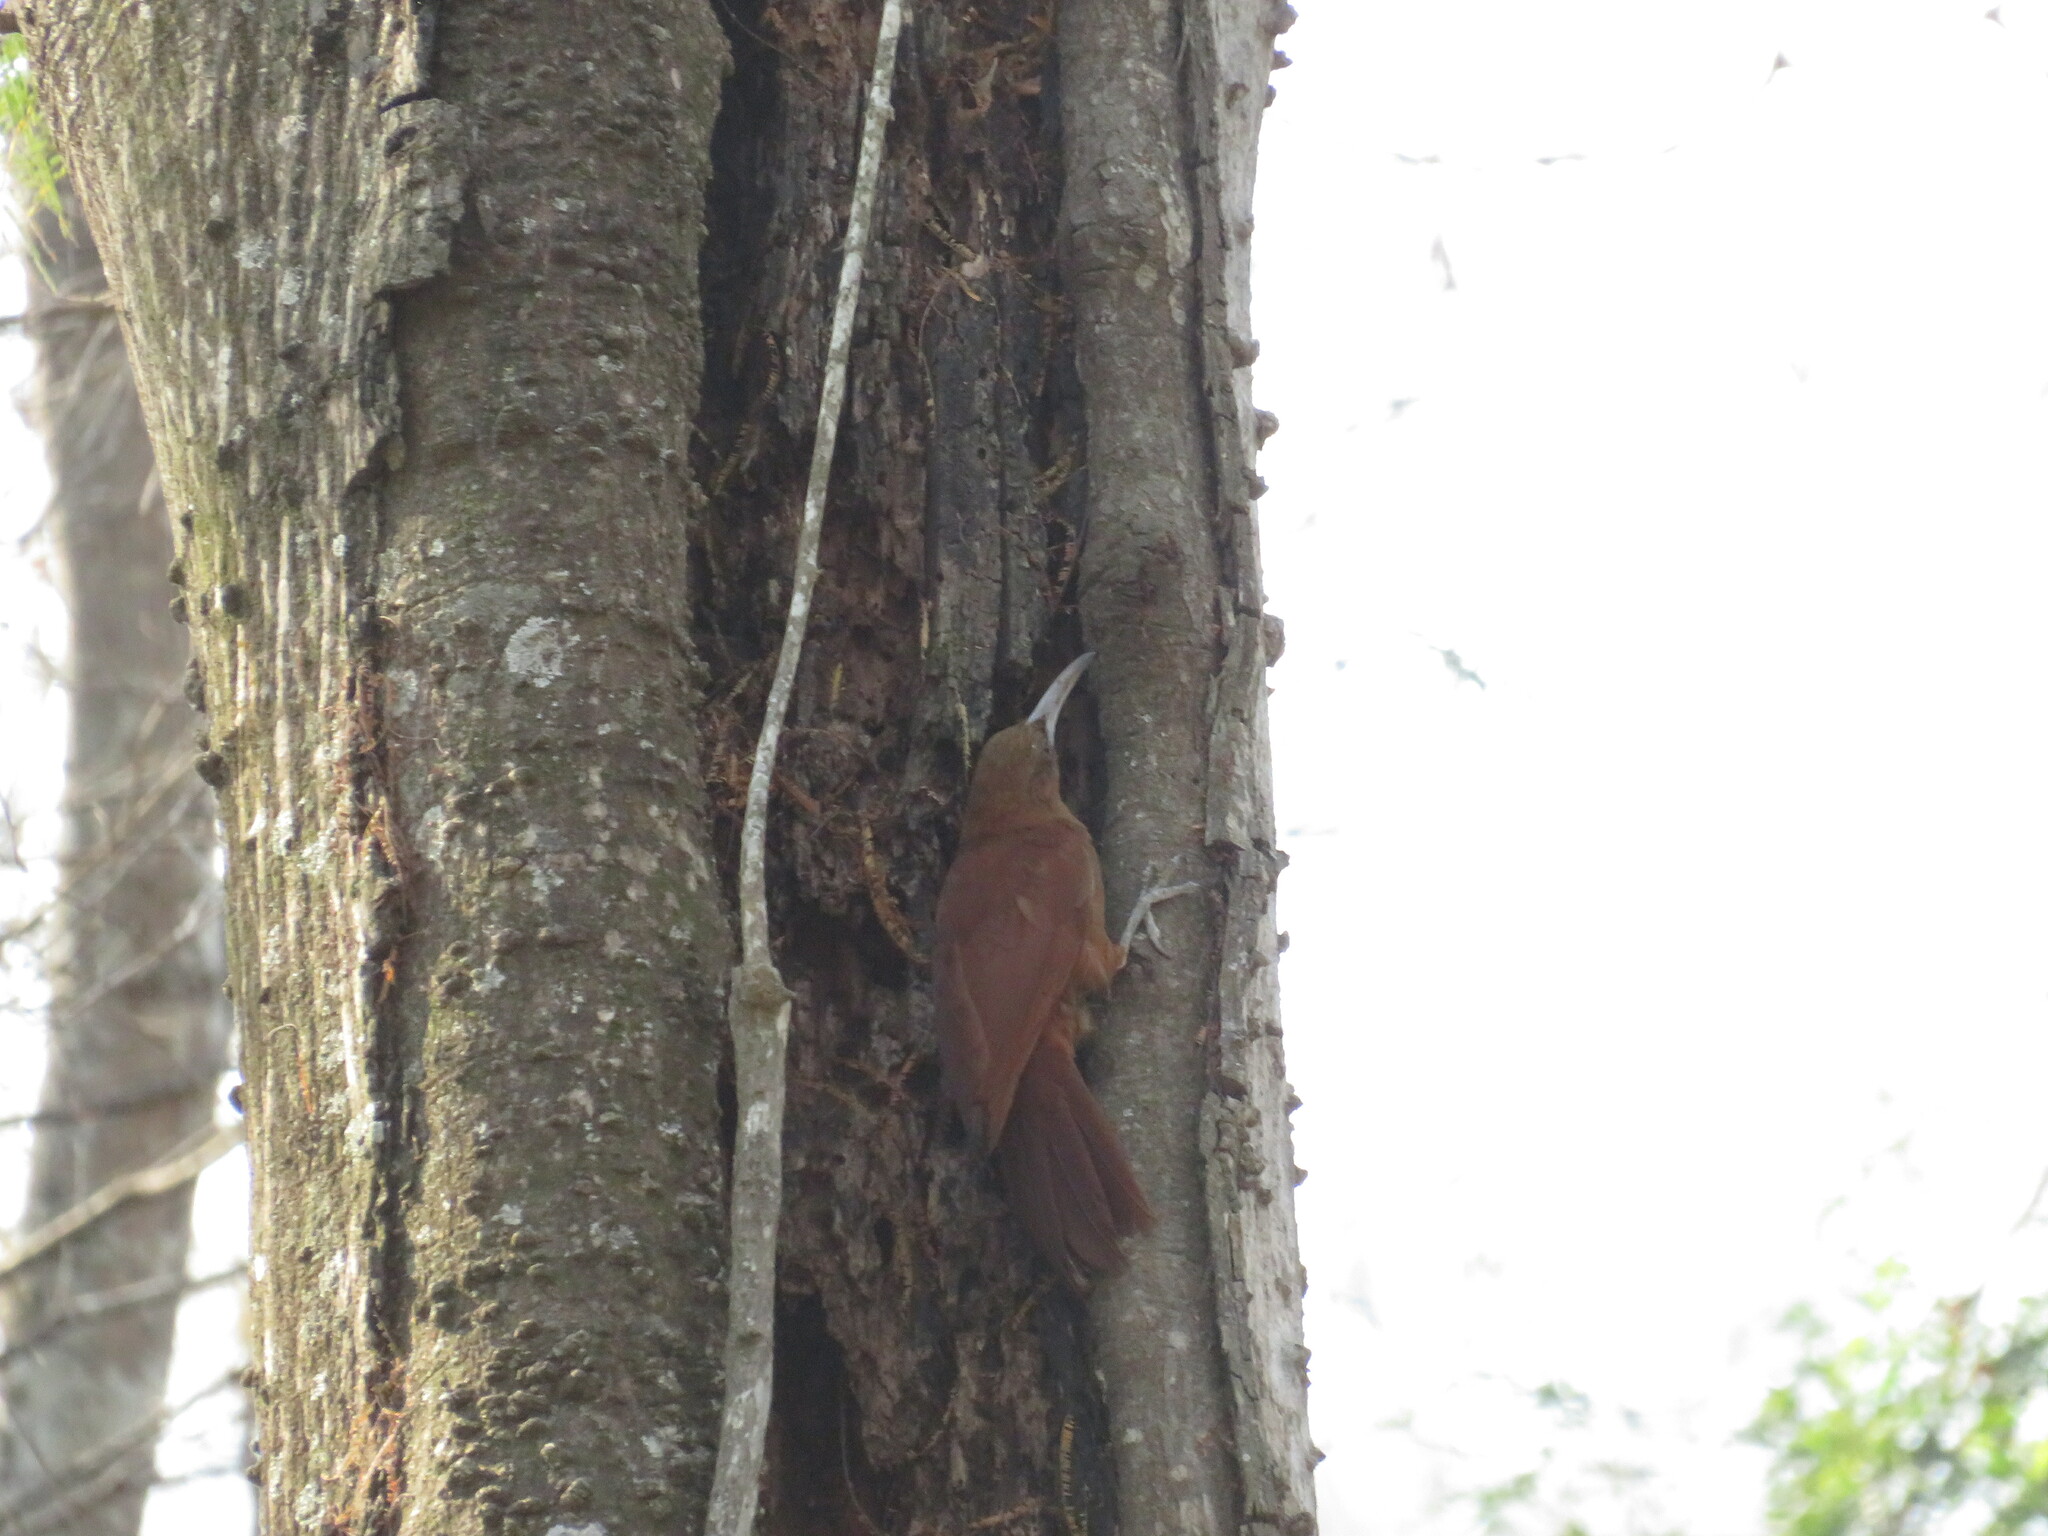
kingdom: Animalia
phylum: Chordata
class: Aves
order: Passeriformes
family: Furnariidae
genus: Xiphocolaptes
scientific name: Xiphocolaptes major
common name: Great rufous woodcreeper
